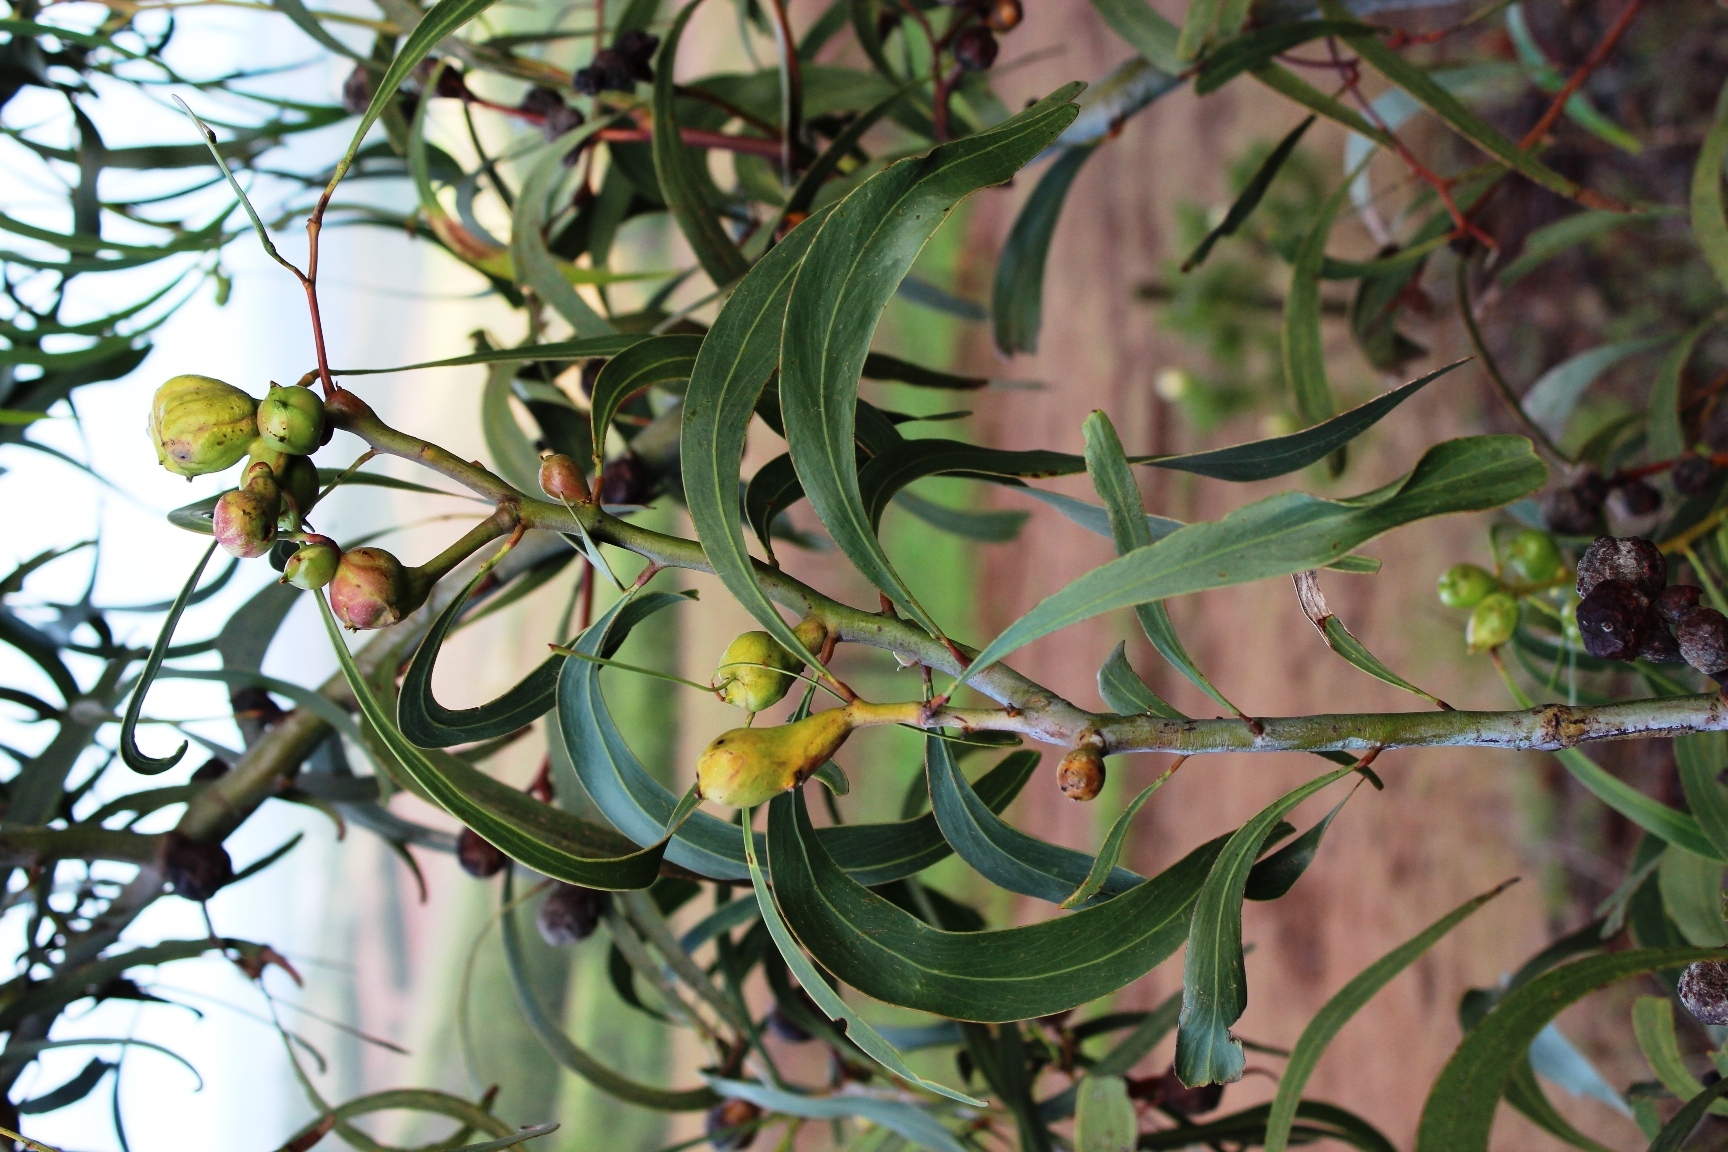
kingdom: Plantae
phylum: Tracheophyta
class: Magnoliopsida
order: Fabales
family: Fabaceae
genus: Acacia
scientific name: Acacia pycnantha
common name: Golden wattle
